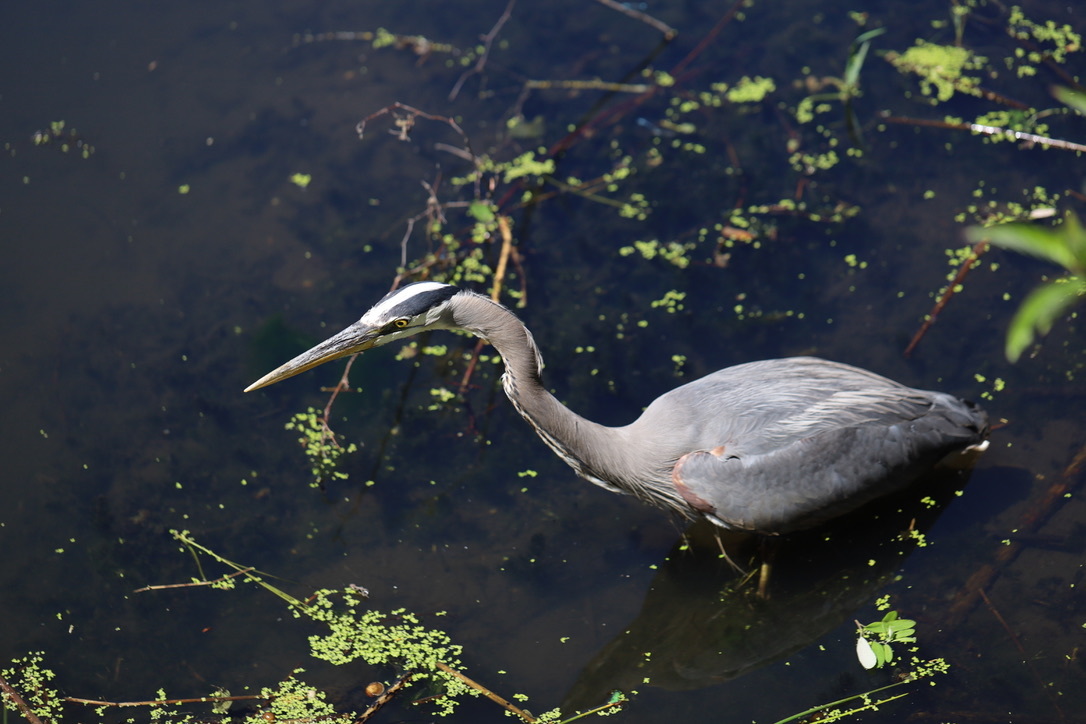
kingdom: Animalia
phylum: Chordata
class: Aves
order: Pelecaniformes
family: Ardeidae
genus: Ardea
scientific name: Ardea herodias
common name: Great blue heron
